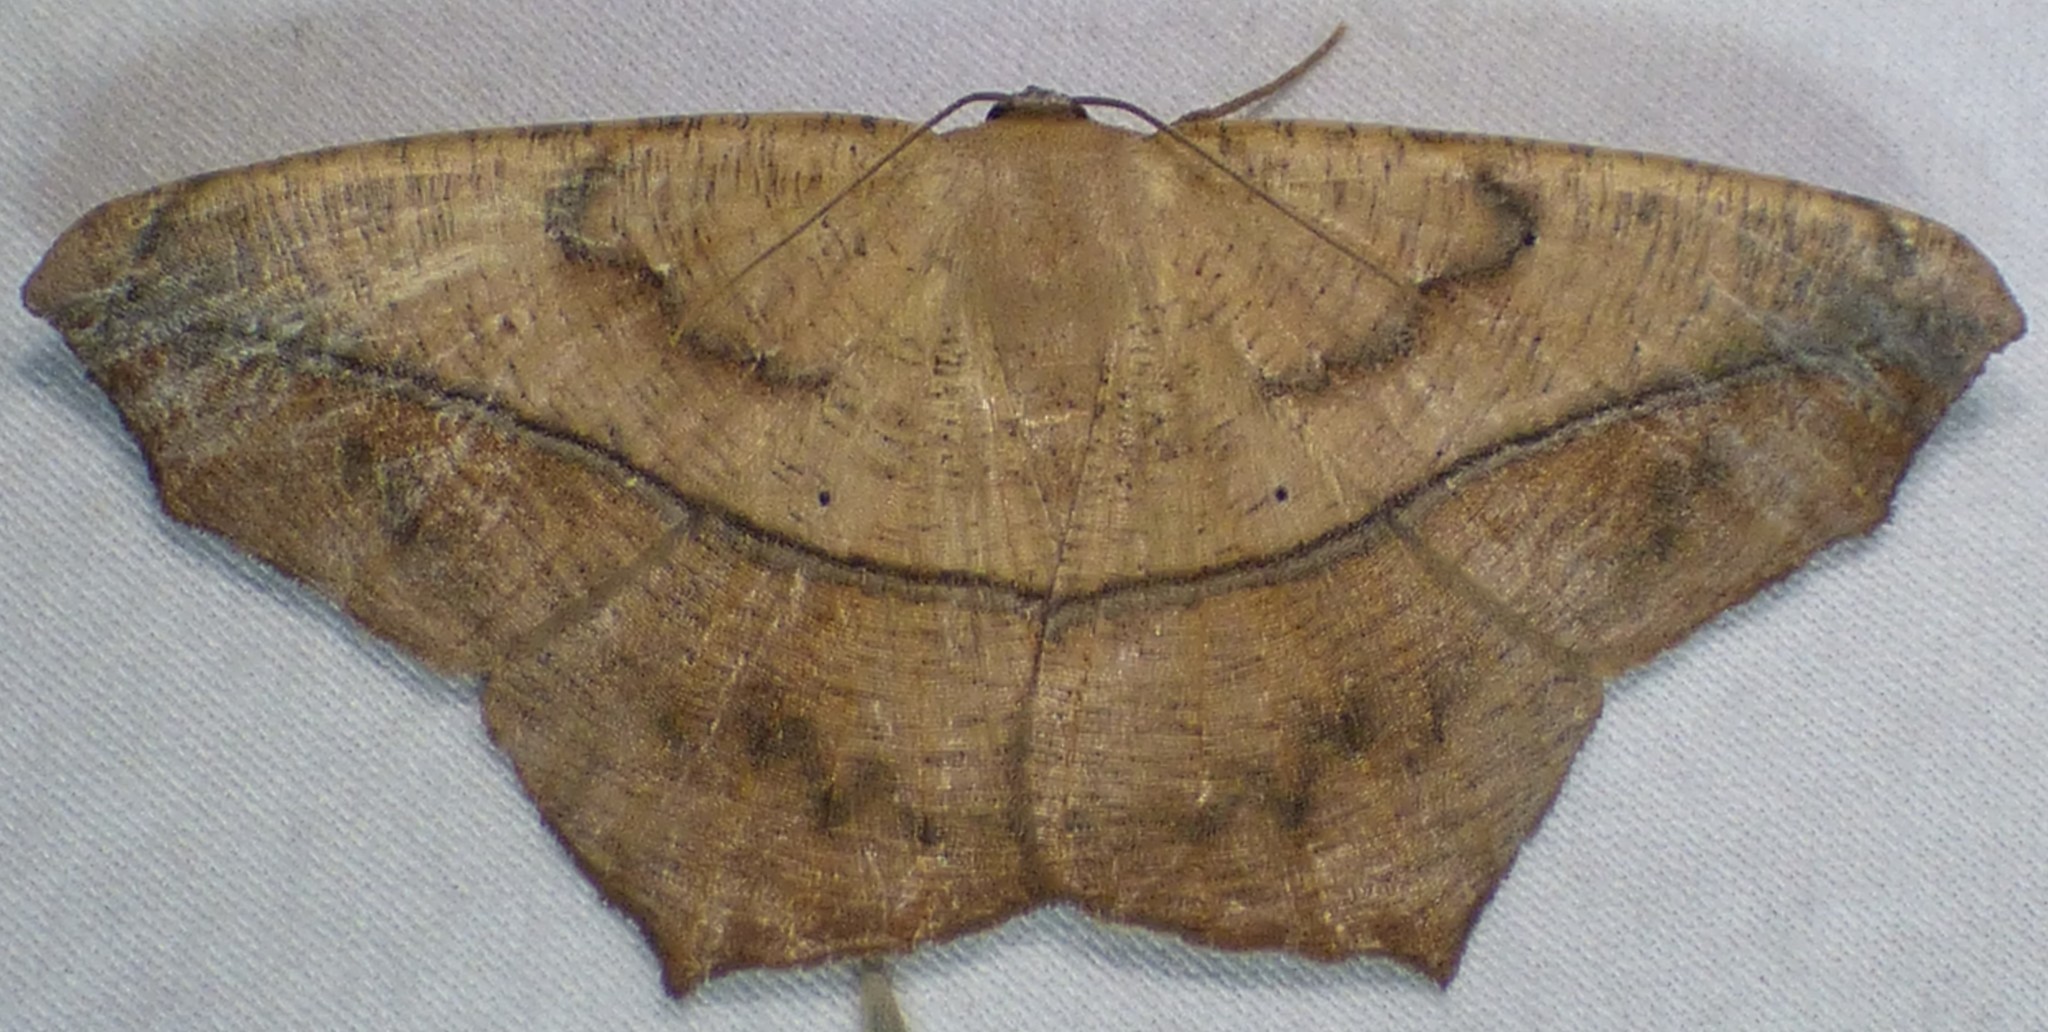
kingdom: Animalia
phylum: Arthropoda
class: Insecta
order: Lepidoptera
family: Geometridae
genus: Prochoerodes
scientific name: Prochoerodes lineola
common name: Large maple spanworm
